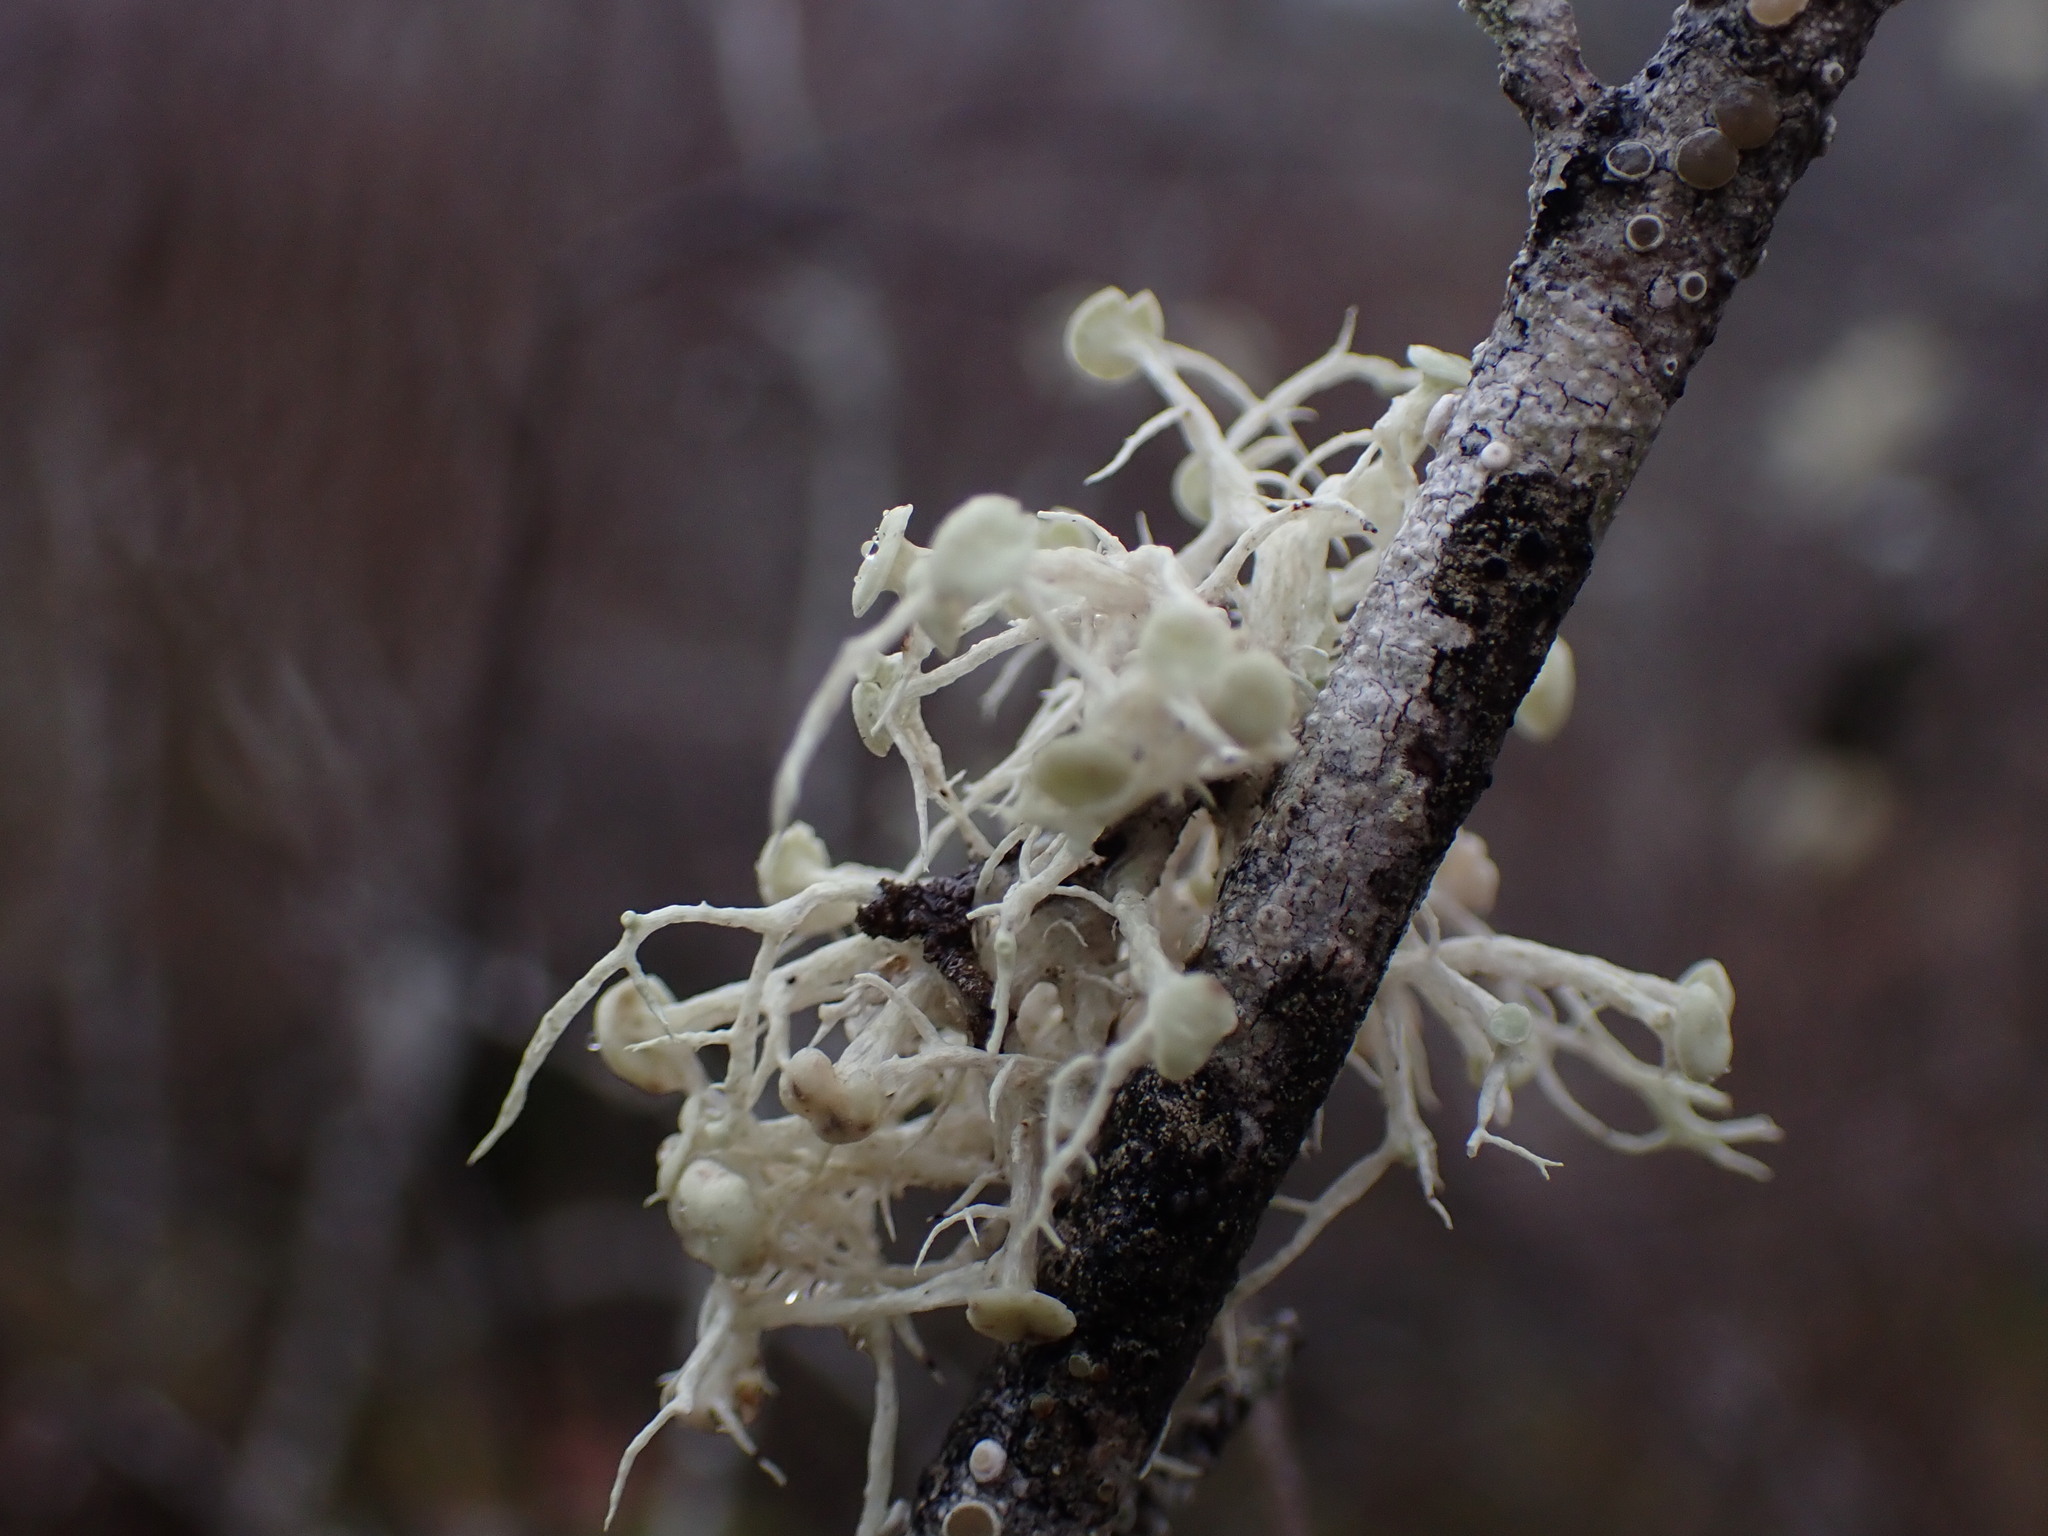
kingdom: Fungi
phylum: Ascomycota
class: Lecanoromycetes
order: Lecanorales
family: Ramalinaceae
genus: Ramalina
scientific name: Ramalina dilacerata
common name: Punctured bushy lichen
